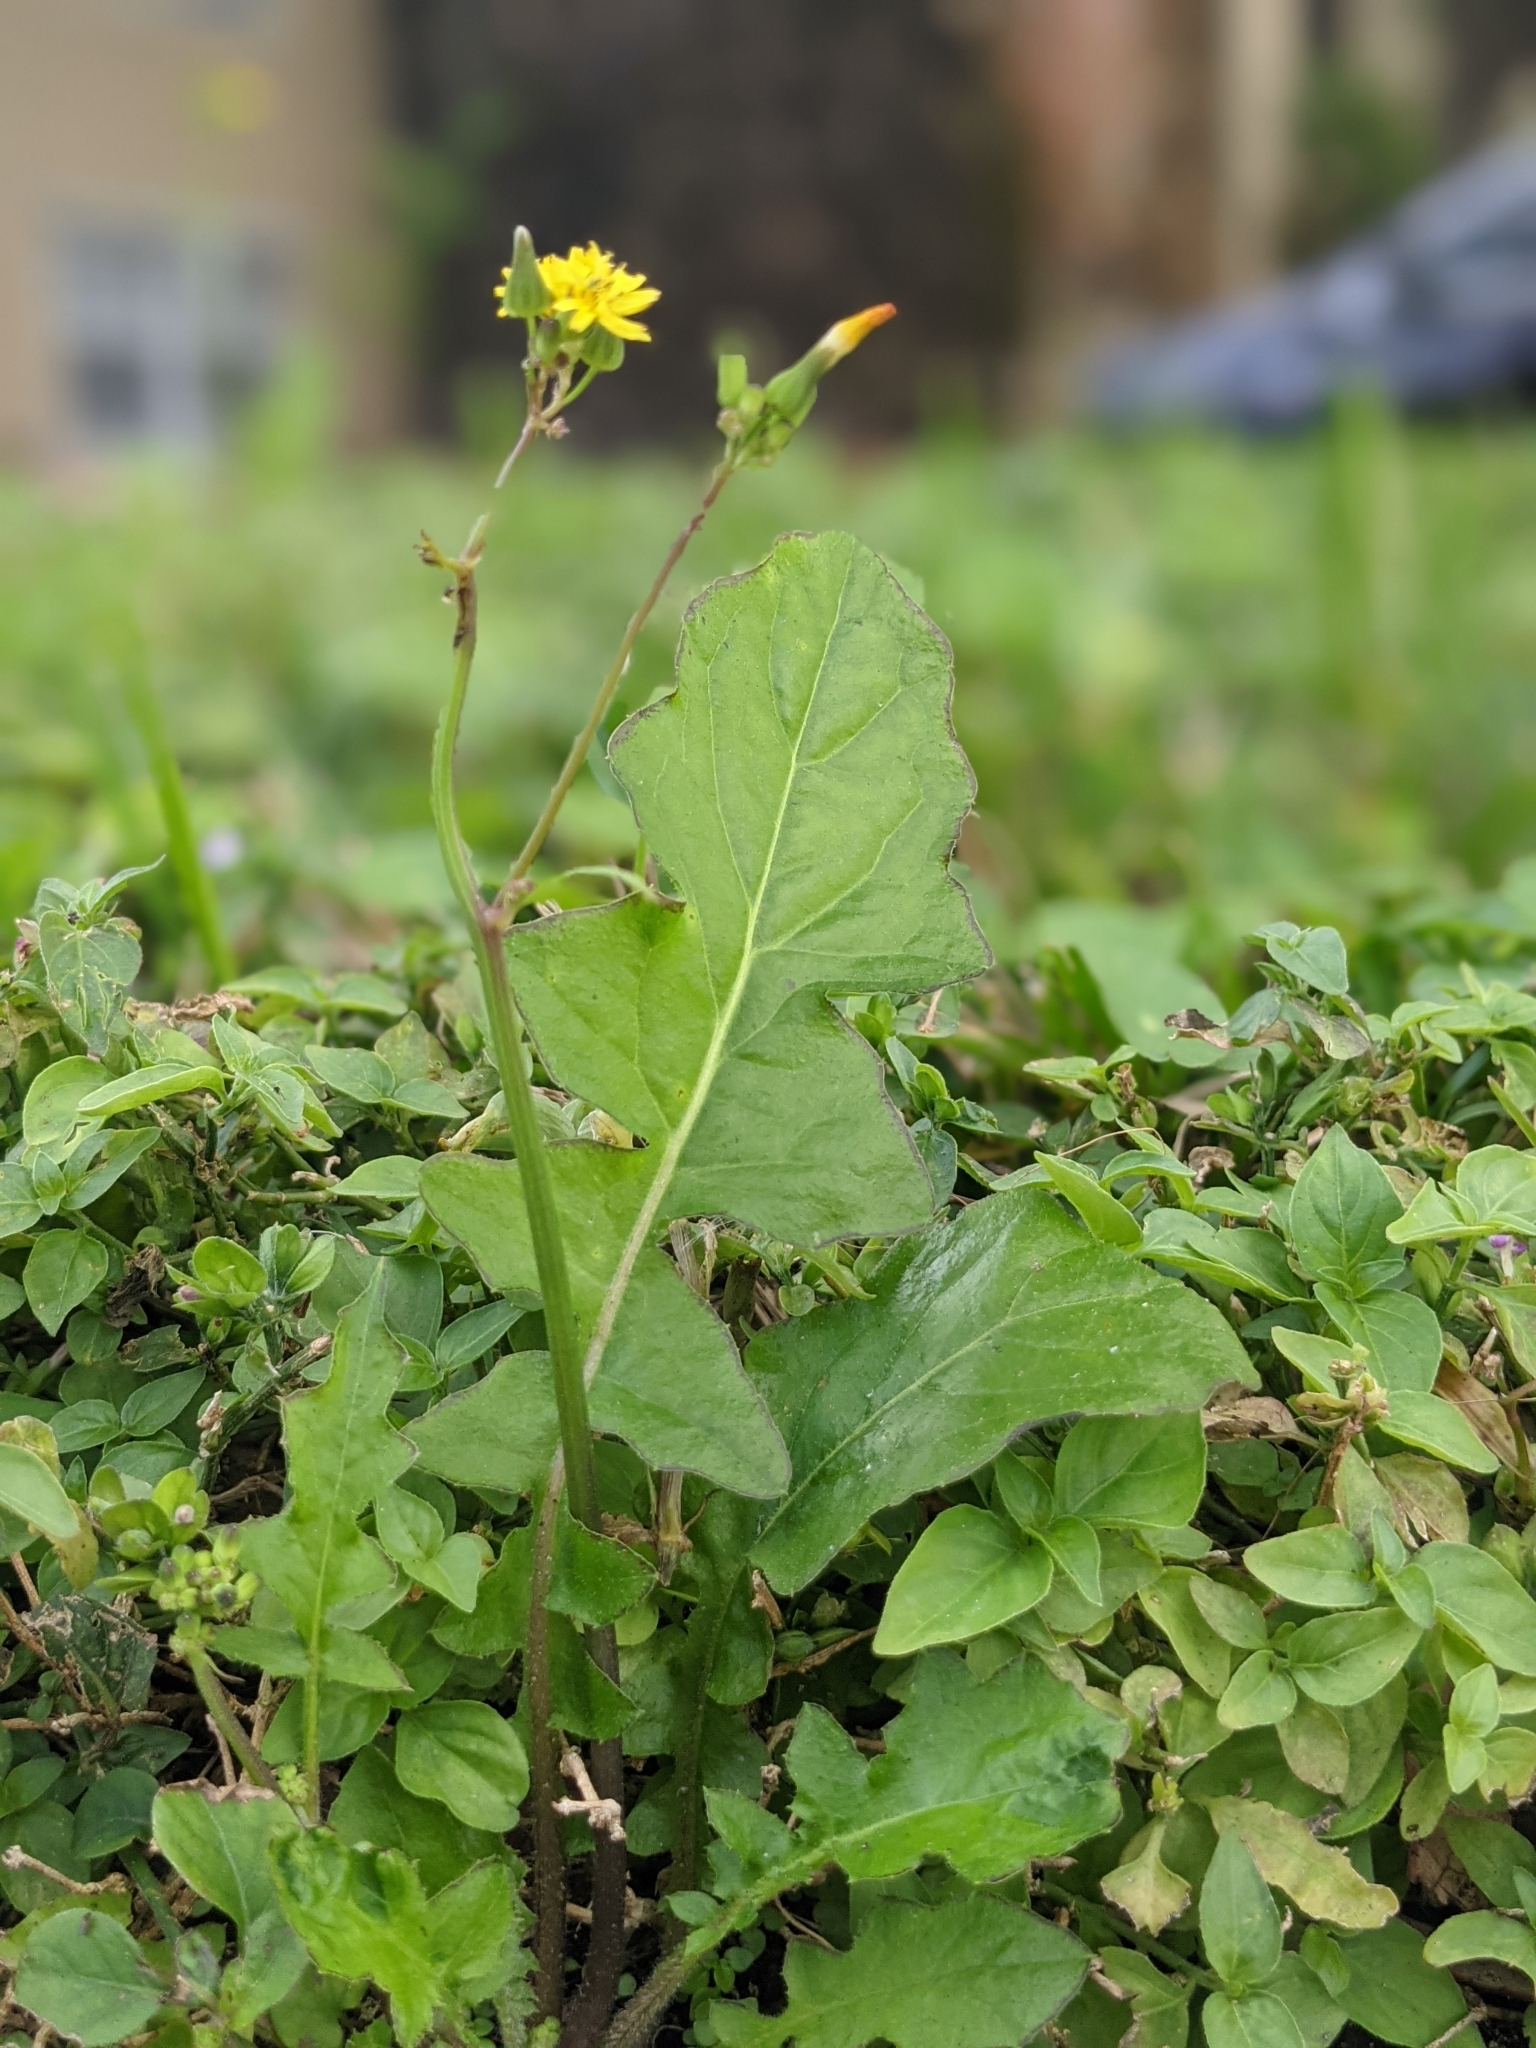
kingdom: Plantae
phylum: Tracheophyta
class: Magnoliopsida
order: Asterales
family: Asteraceae
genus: Youngia
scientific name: Youngia japonica
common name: Oriental false hawksbeard
